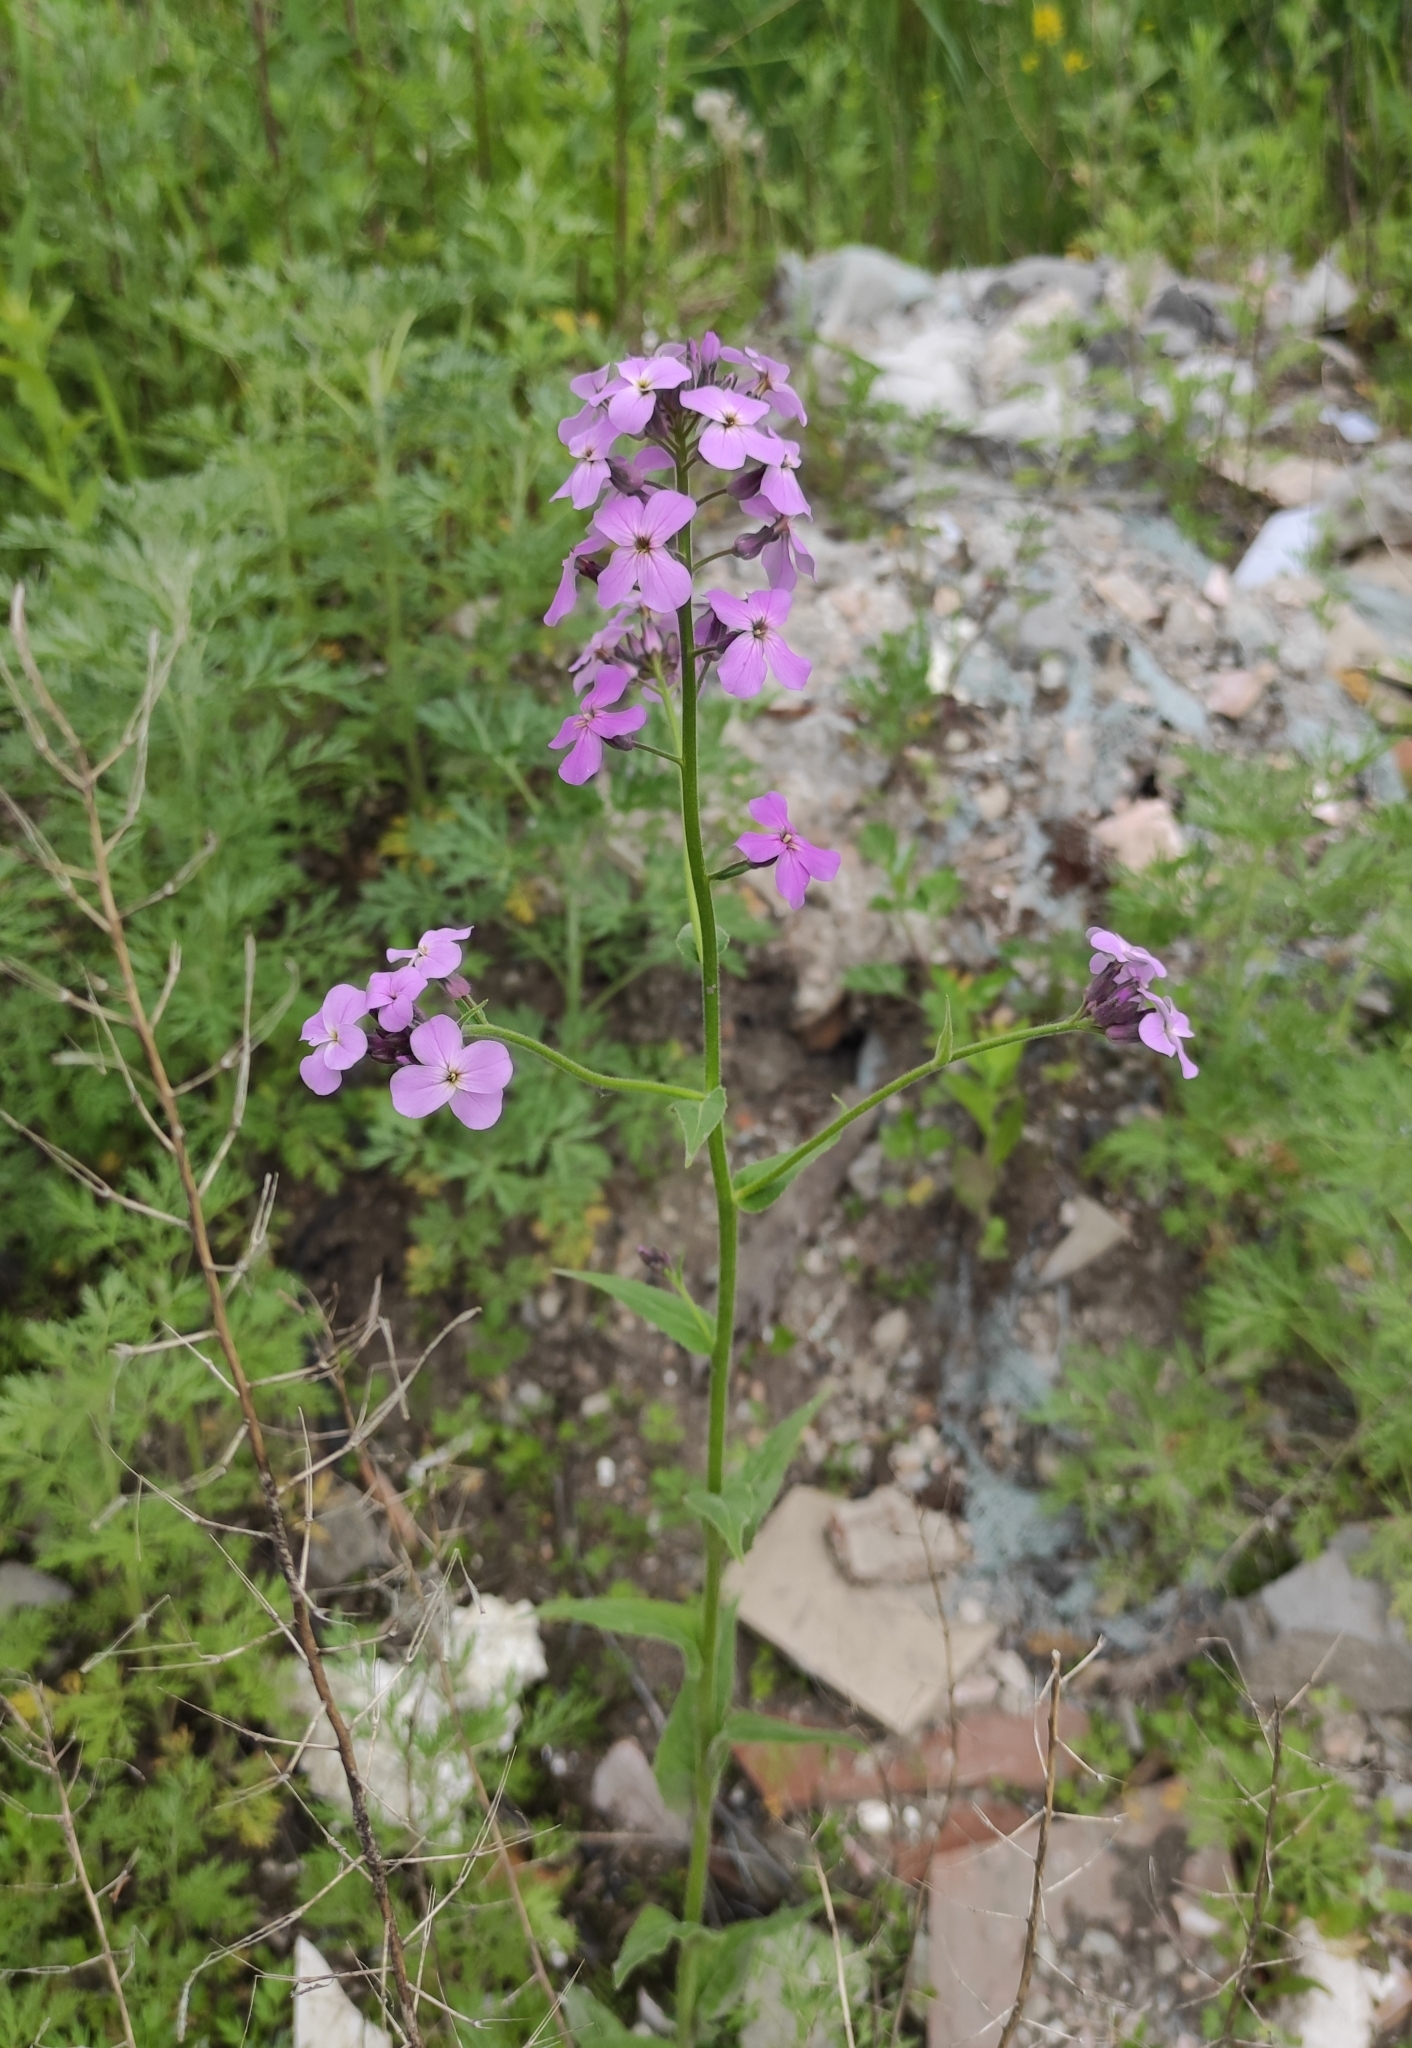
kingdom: Plantae
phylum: Tracheophyta
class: Magnoliopsida
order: Brassicales
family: Brassicaceae
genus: Hesperis
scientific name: Hesperis sibirica
